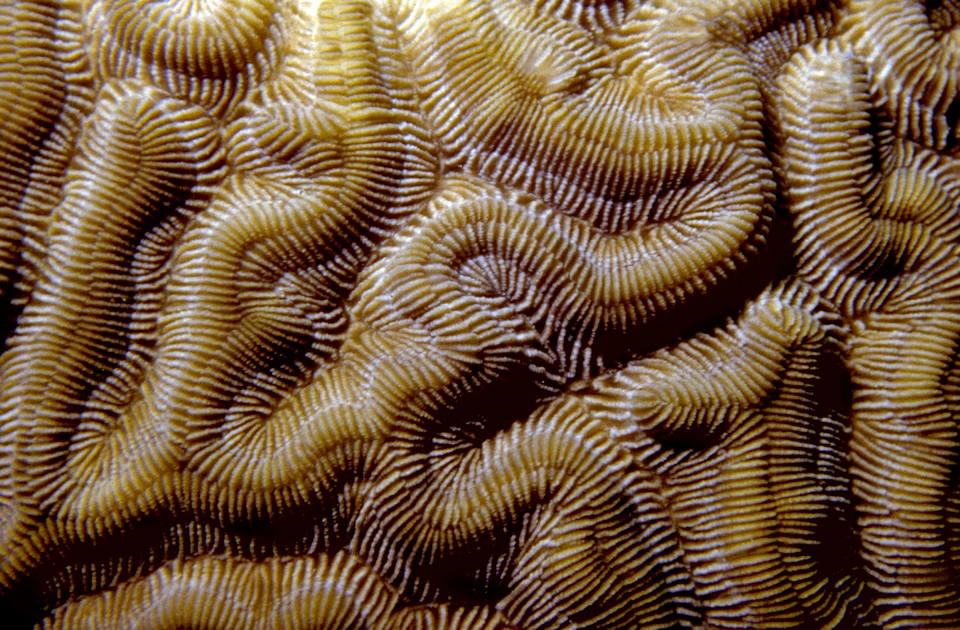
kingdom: Animalia
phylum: Cnidaria
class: Anthozoa
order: Scleractinia
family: Faviidae
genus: Colpophyllia
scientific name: Colpophyllia natans
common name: Boulder brain coral
